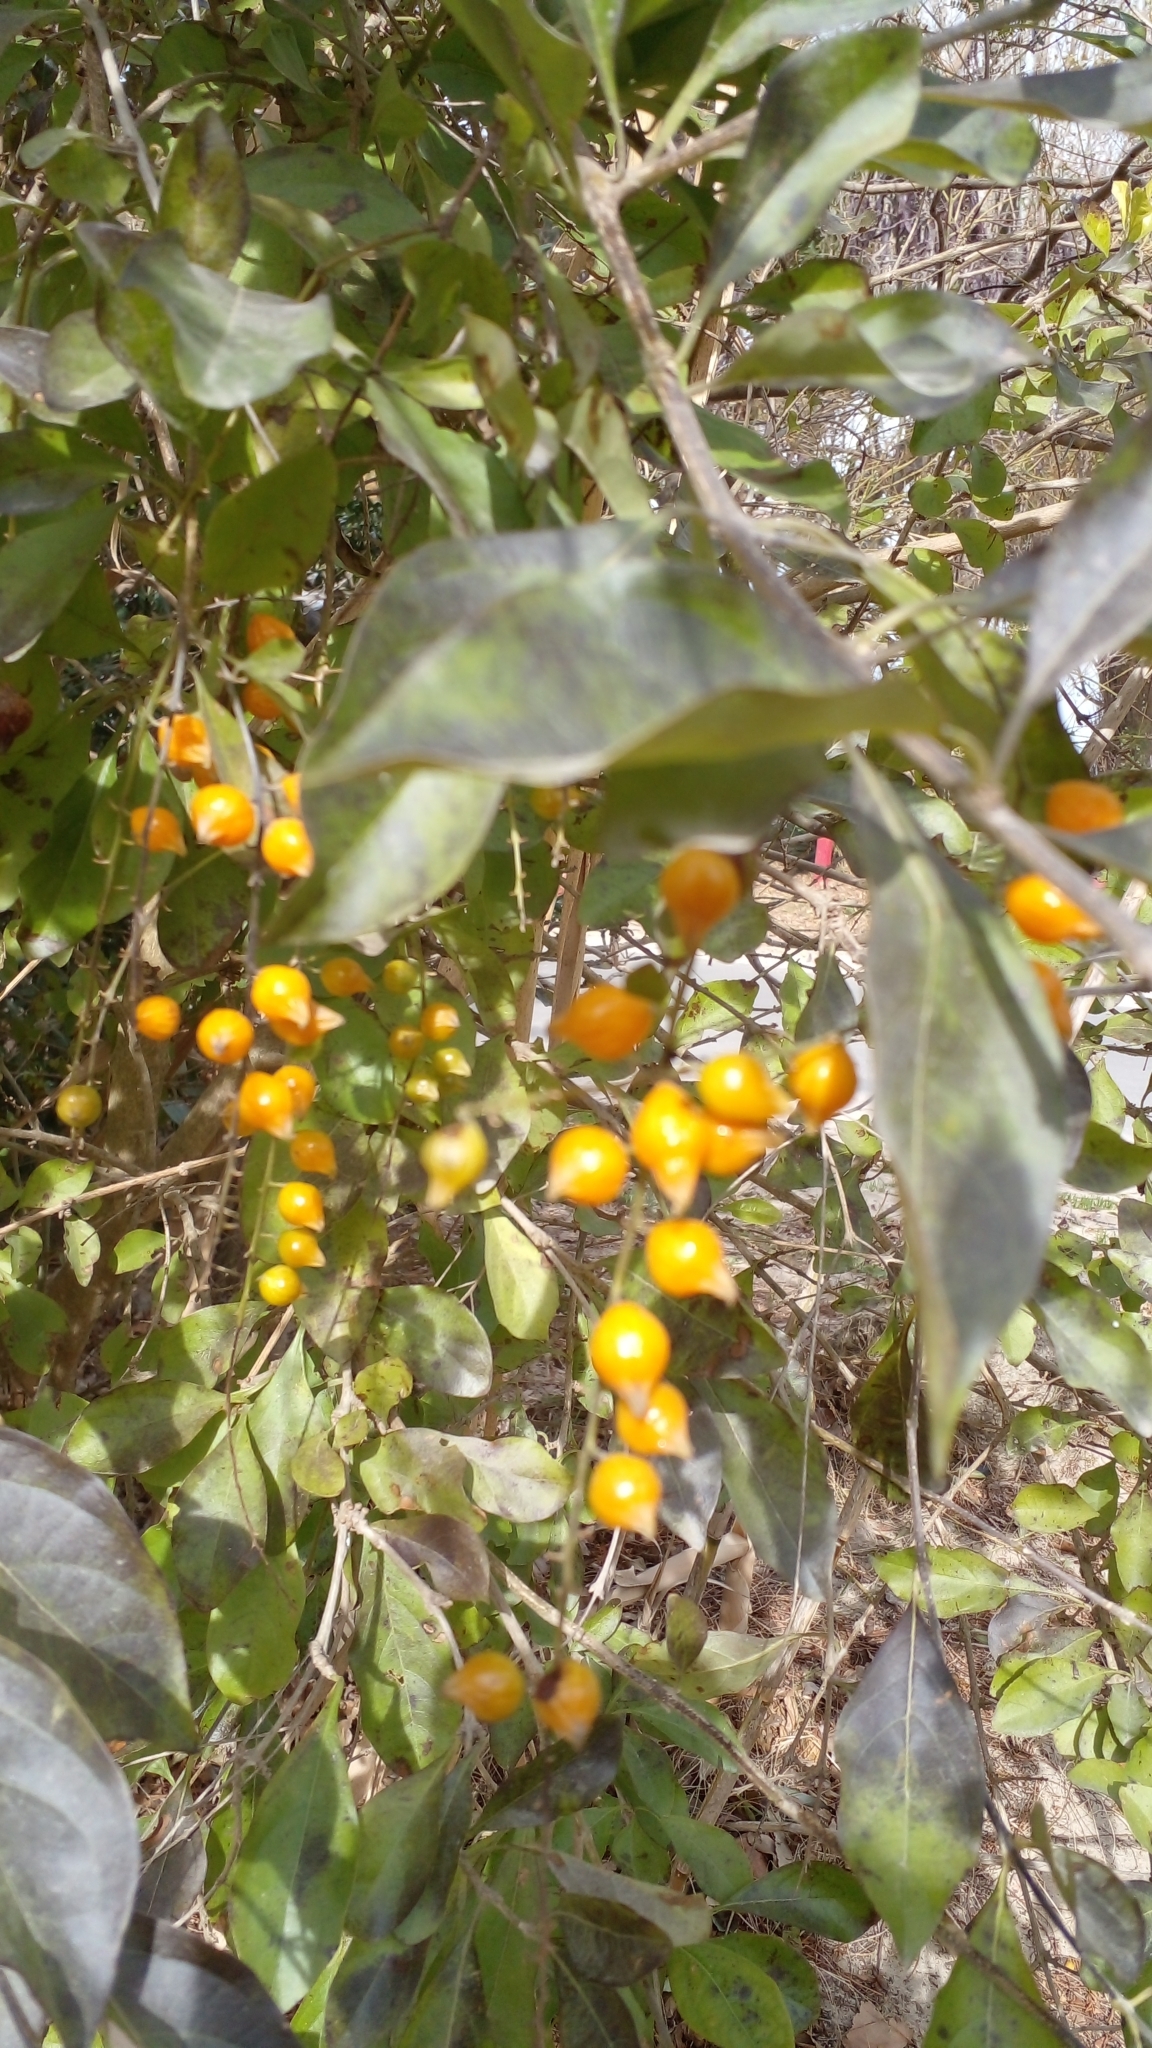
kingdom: Plantae
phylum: Tracheophyta
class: Magnoliopsida
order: Lamiales
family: Verbenaceae
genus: Duranta
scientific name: Duranta erecta
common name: Golden dewdrops
